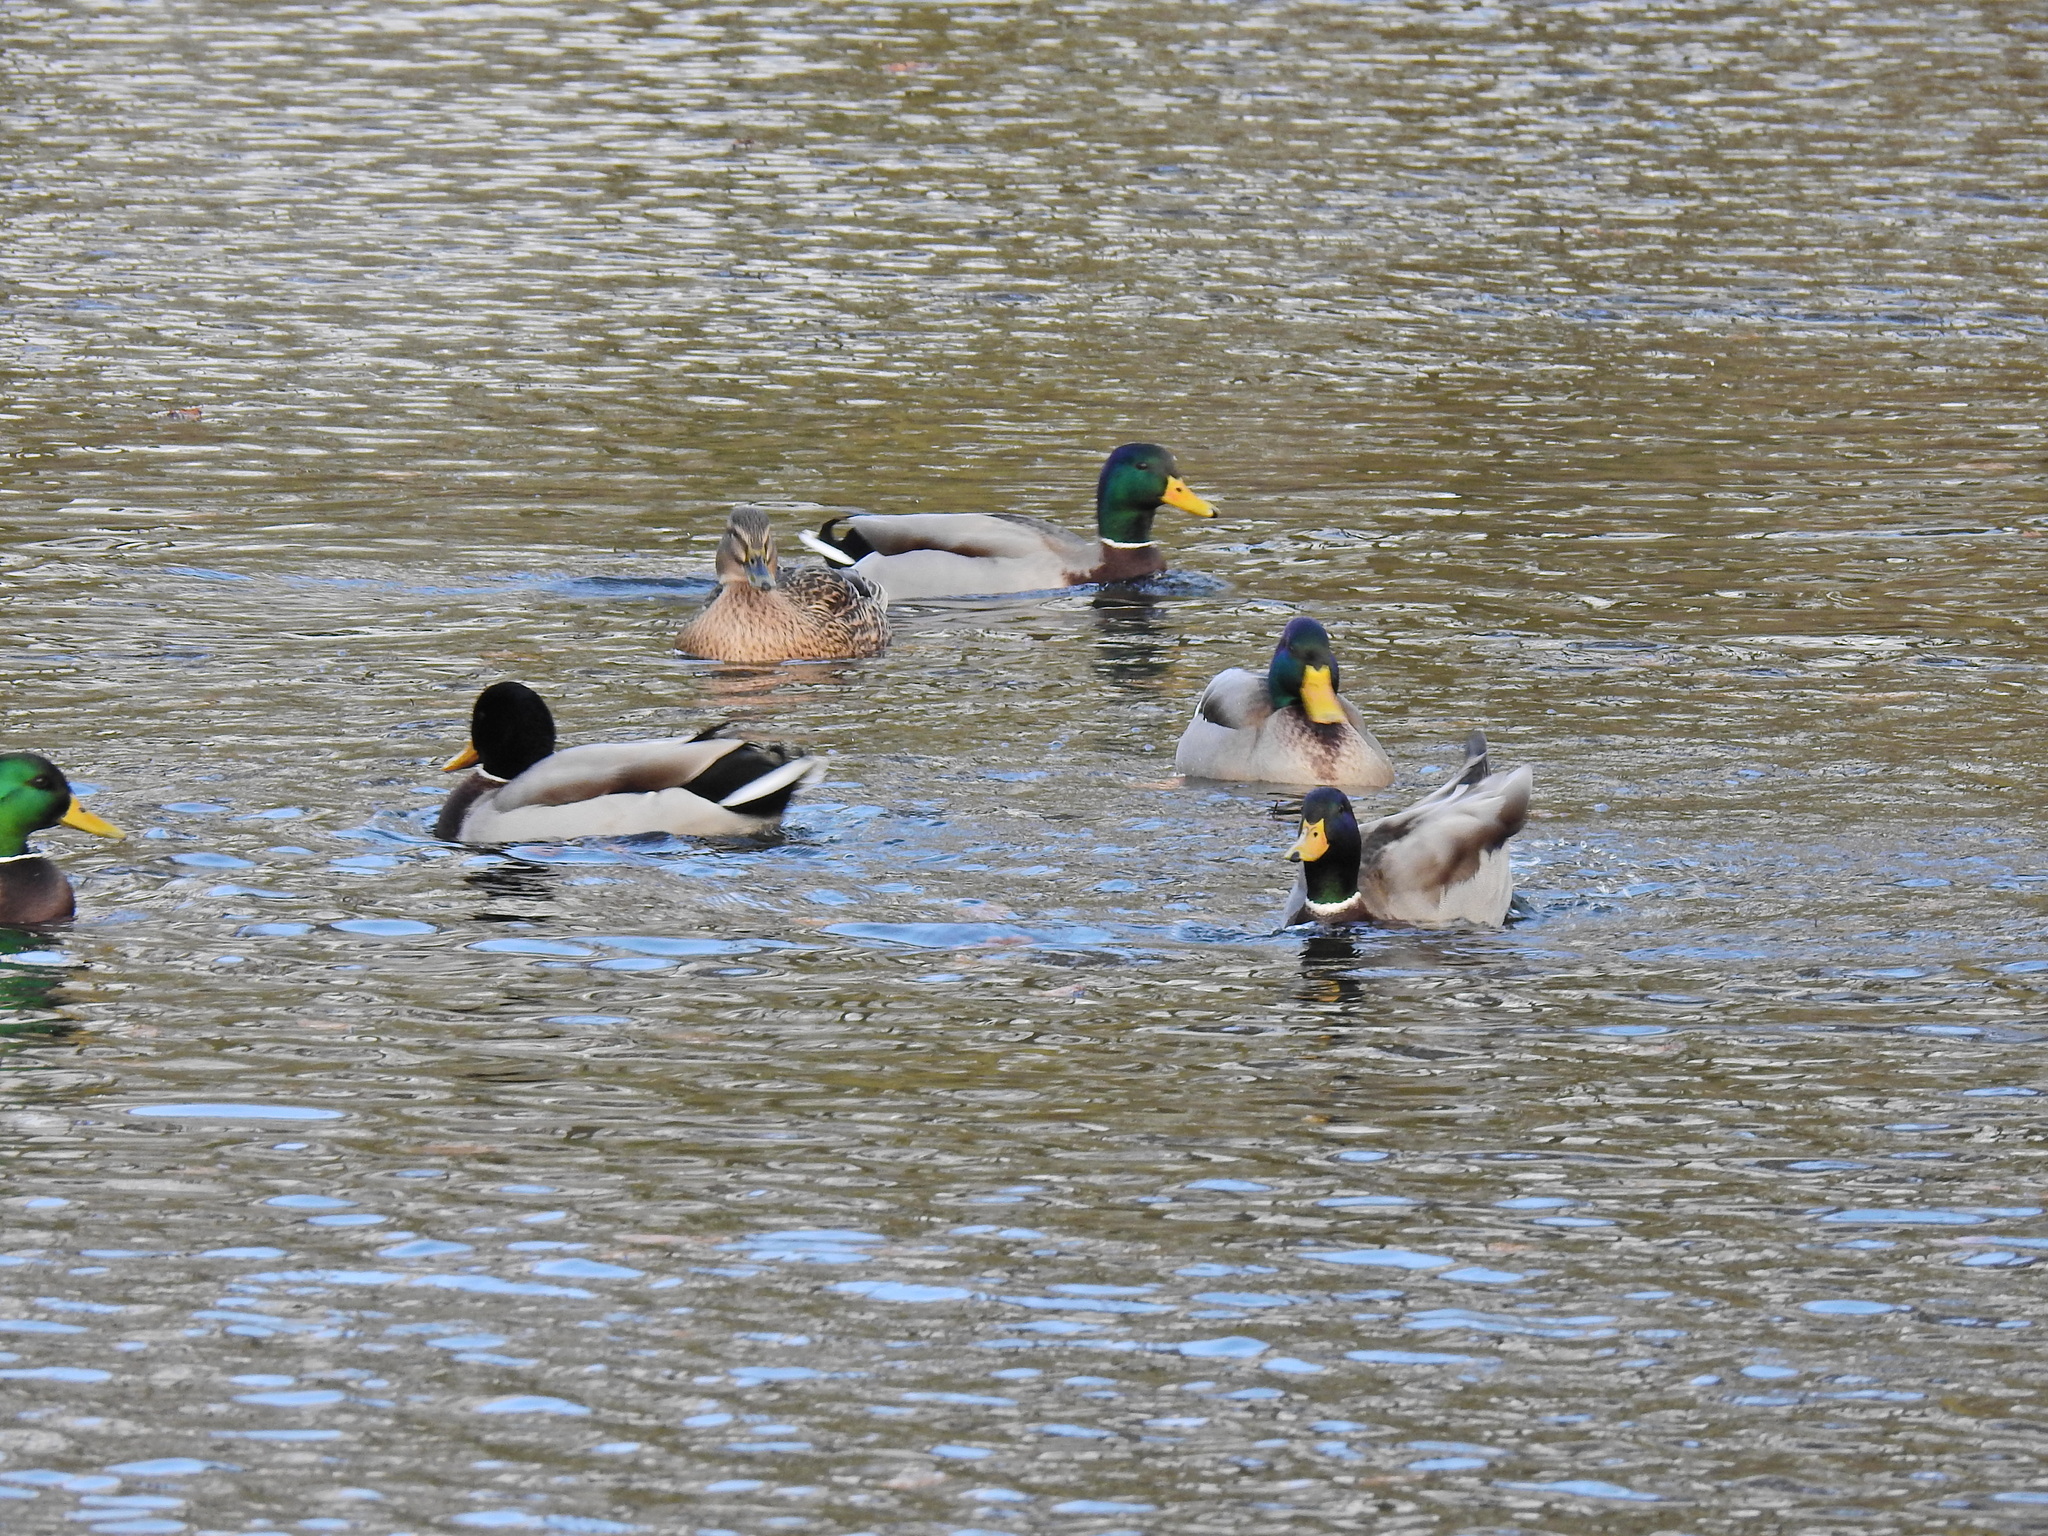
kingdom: Animalia
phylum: Chordata
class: Aves
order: Anseriformes
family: Anatidae
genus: Anas
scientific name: Anas platyrhynchos
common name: Mallard
